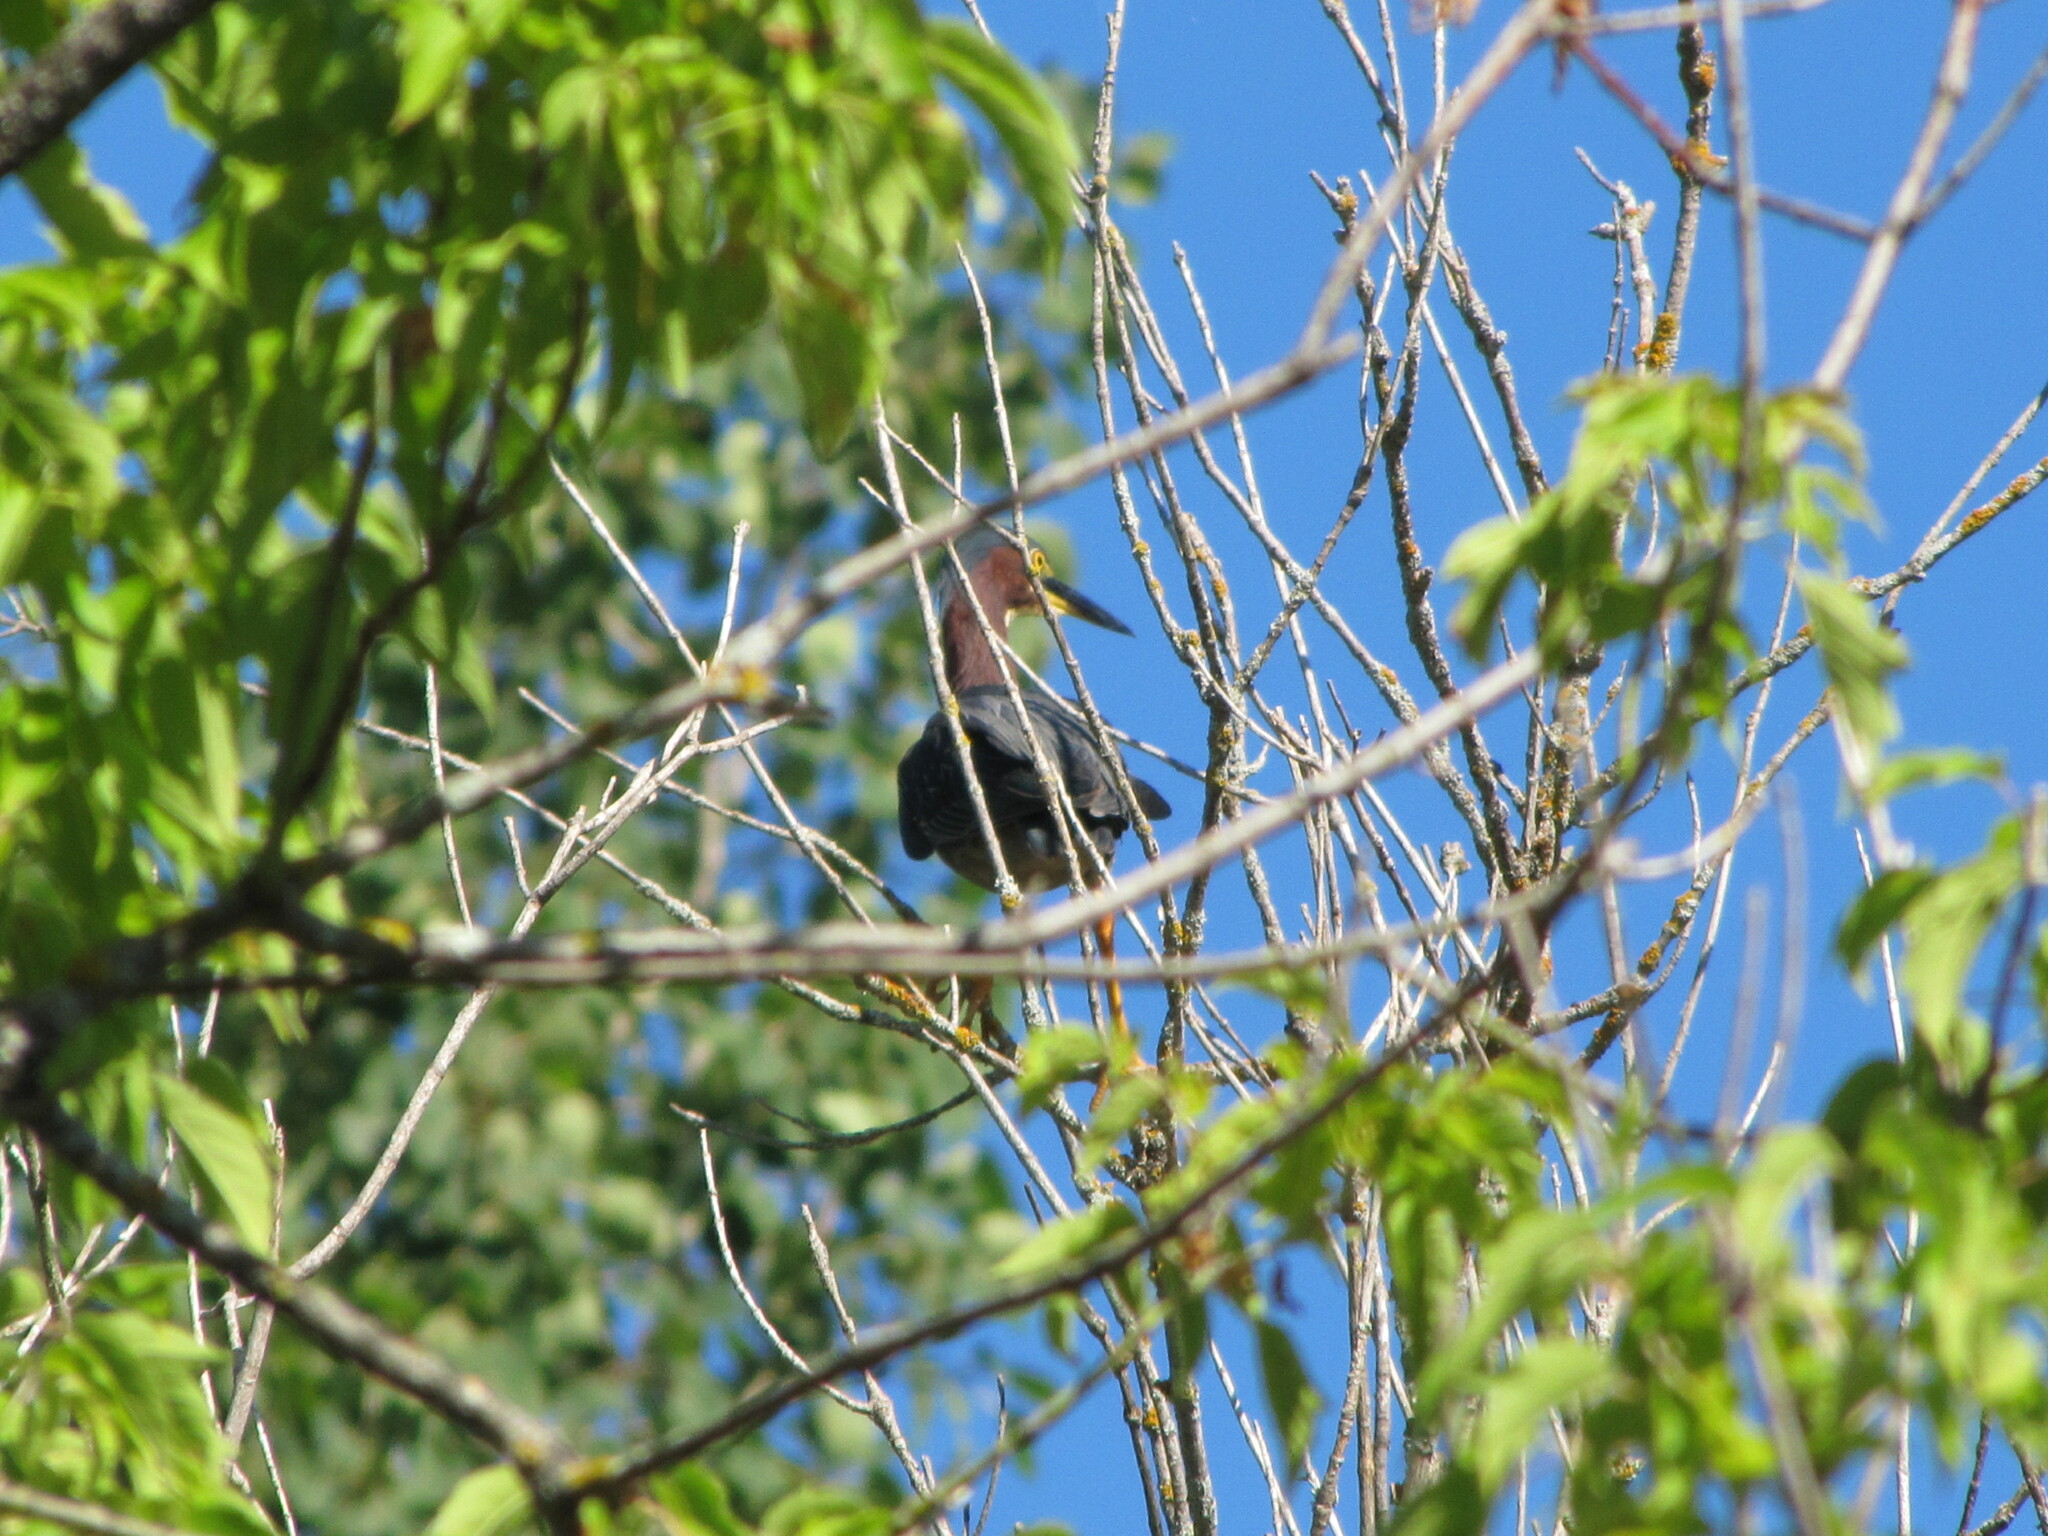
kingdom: Animalia
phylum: Chordata
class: Aves
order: Pelecaniformes
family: Ardeidae
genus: Butorides
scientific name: Butorides virescens
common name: Green heron
